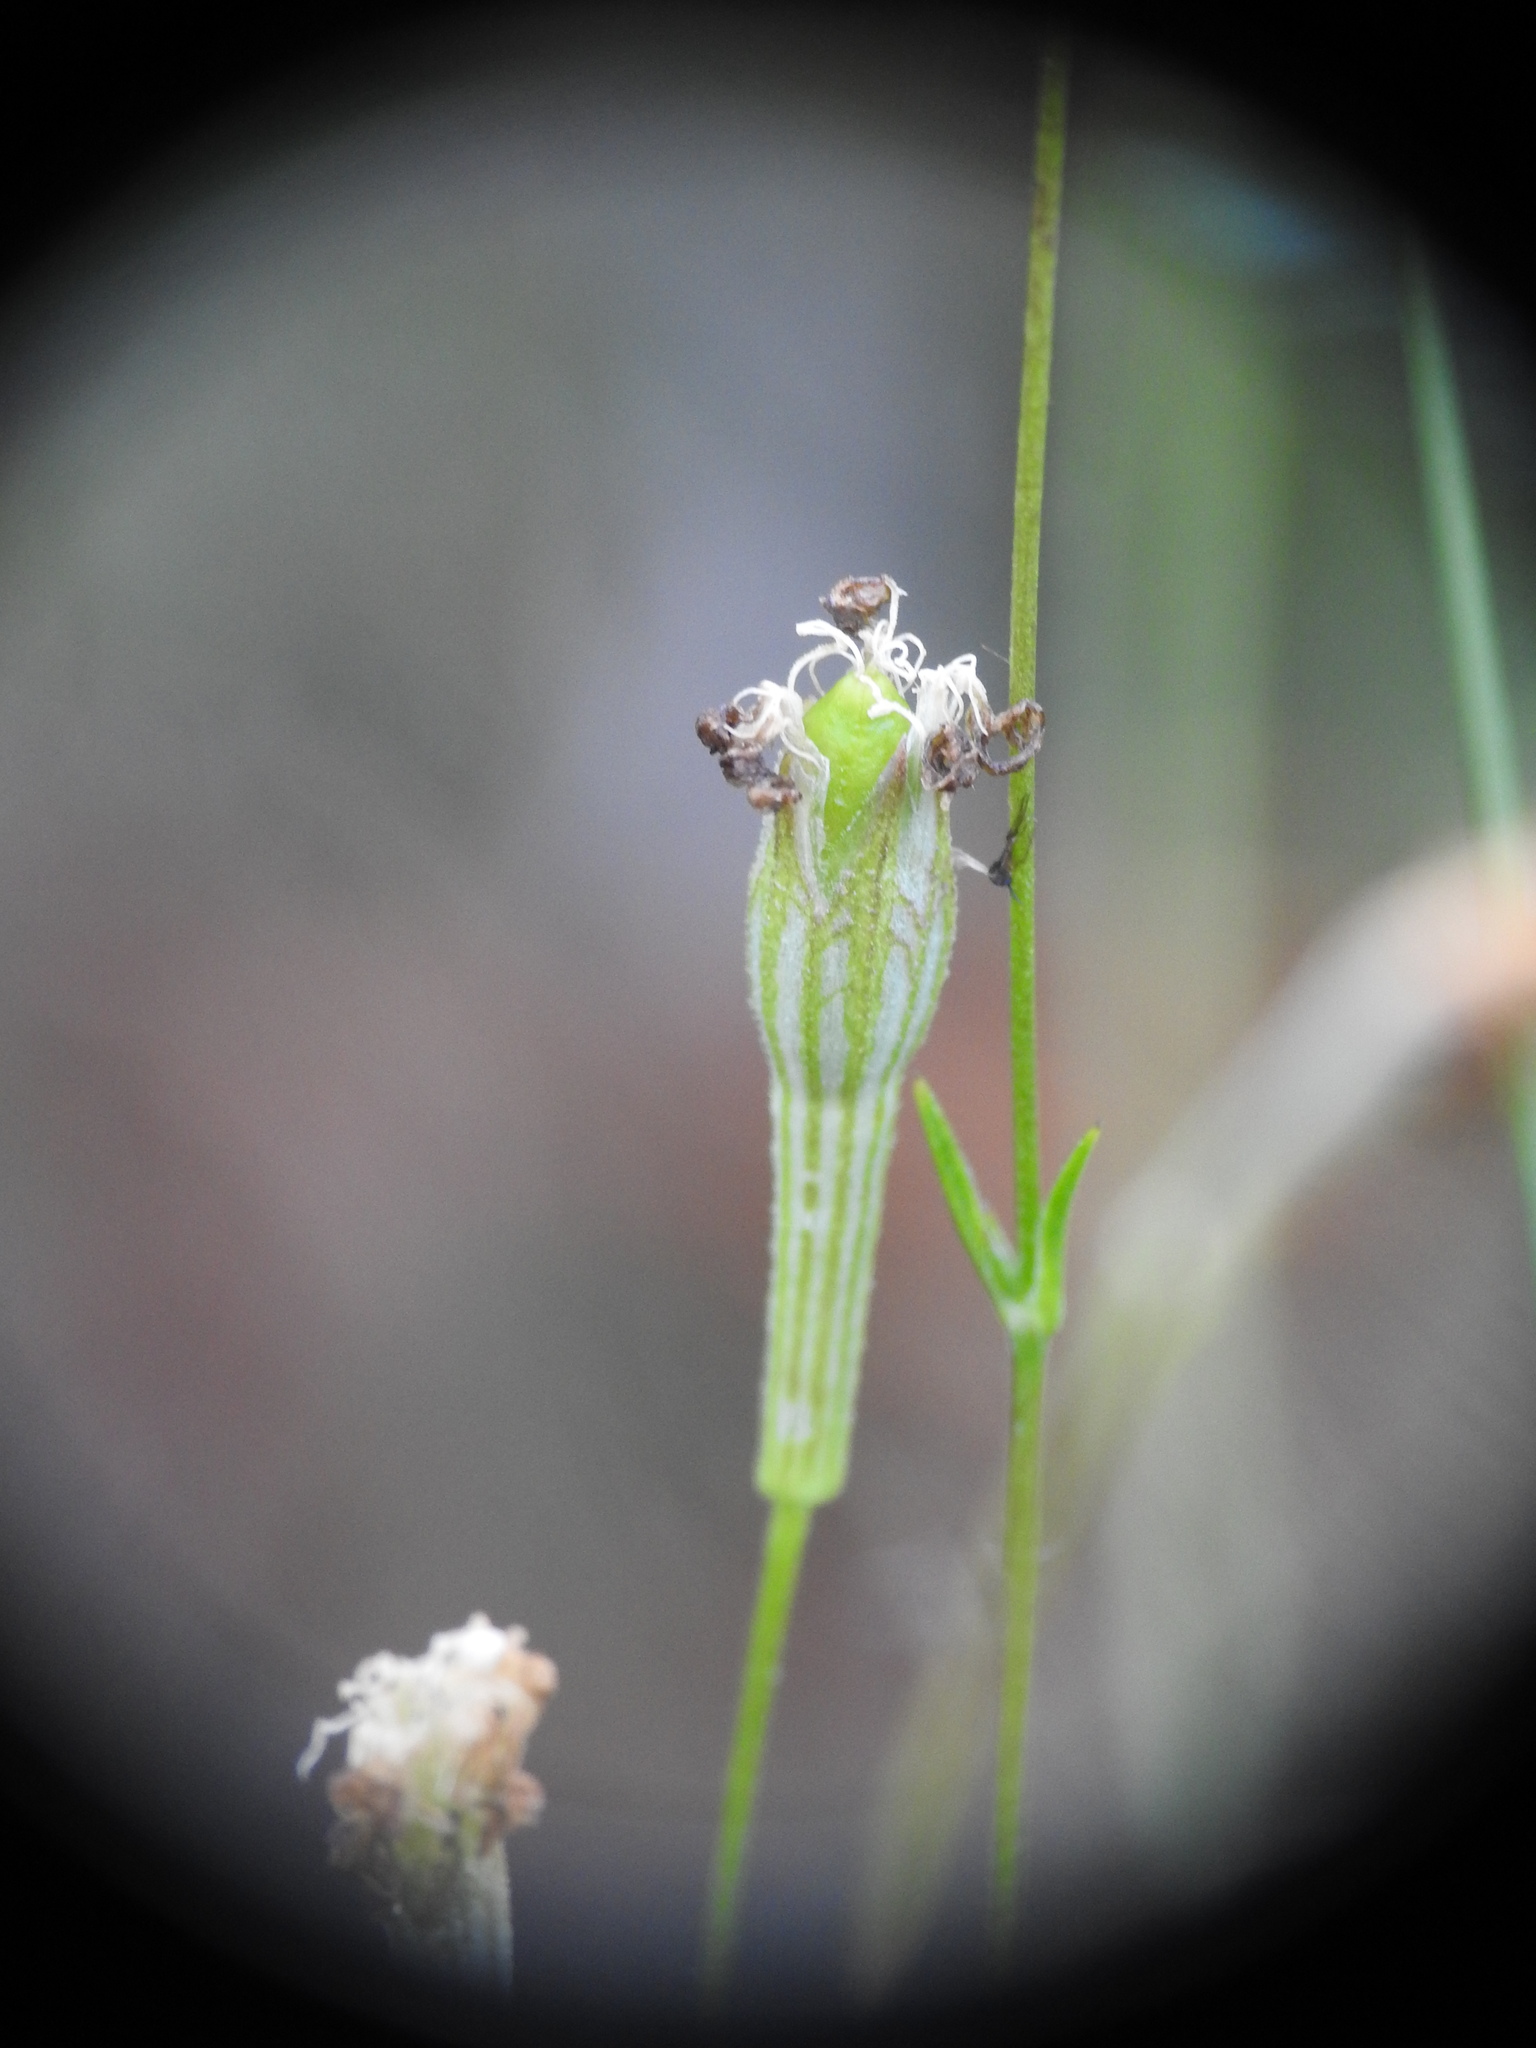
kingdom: Plantae
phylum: Tracheophyta
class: Magnoliopsida
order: Caryophyllales
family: Caryophyllaceae
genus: Silene
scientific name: Silene nutans
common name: Nottingham catchfly
